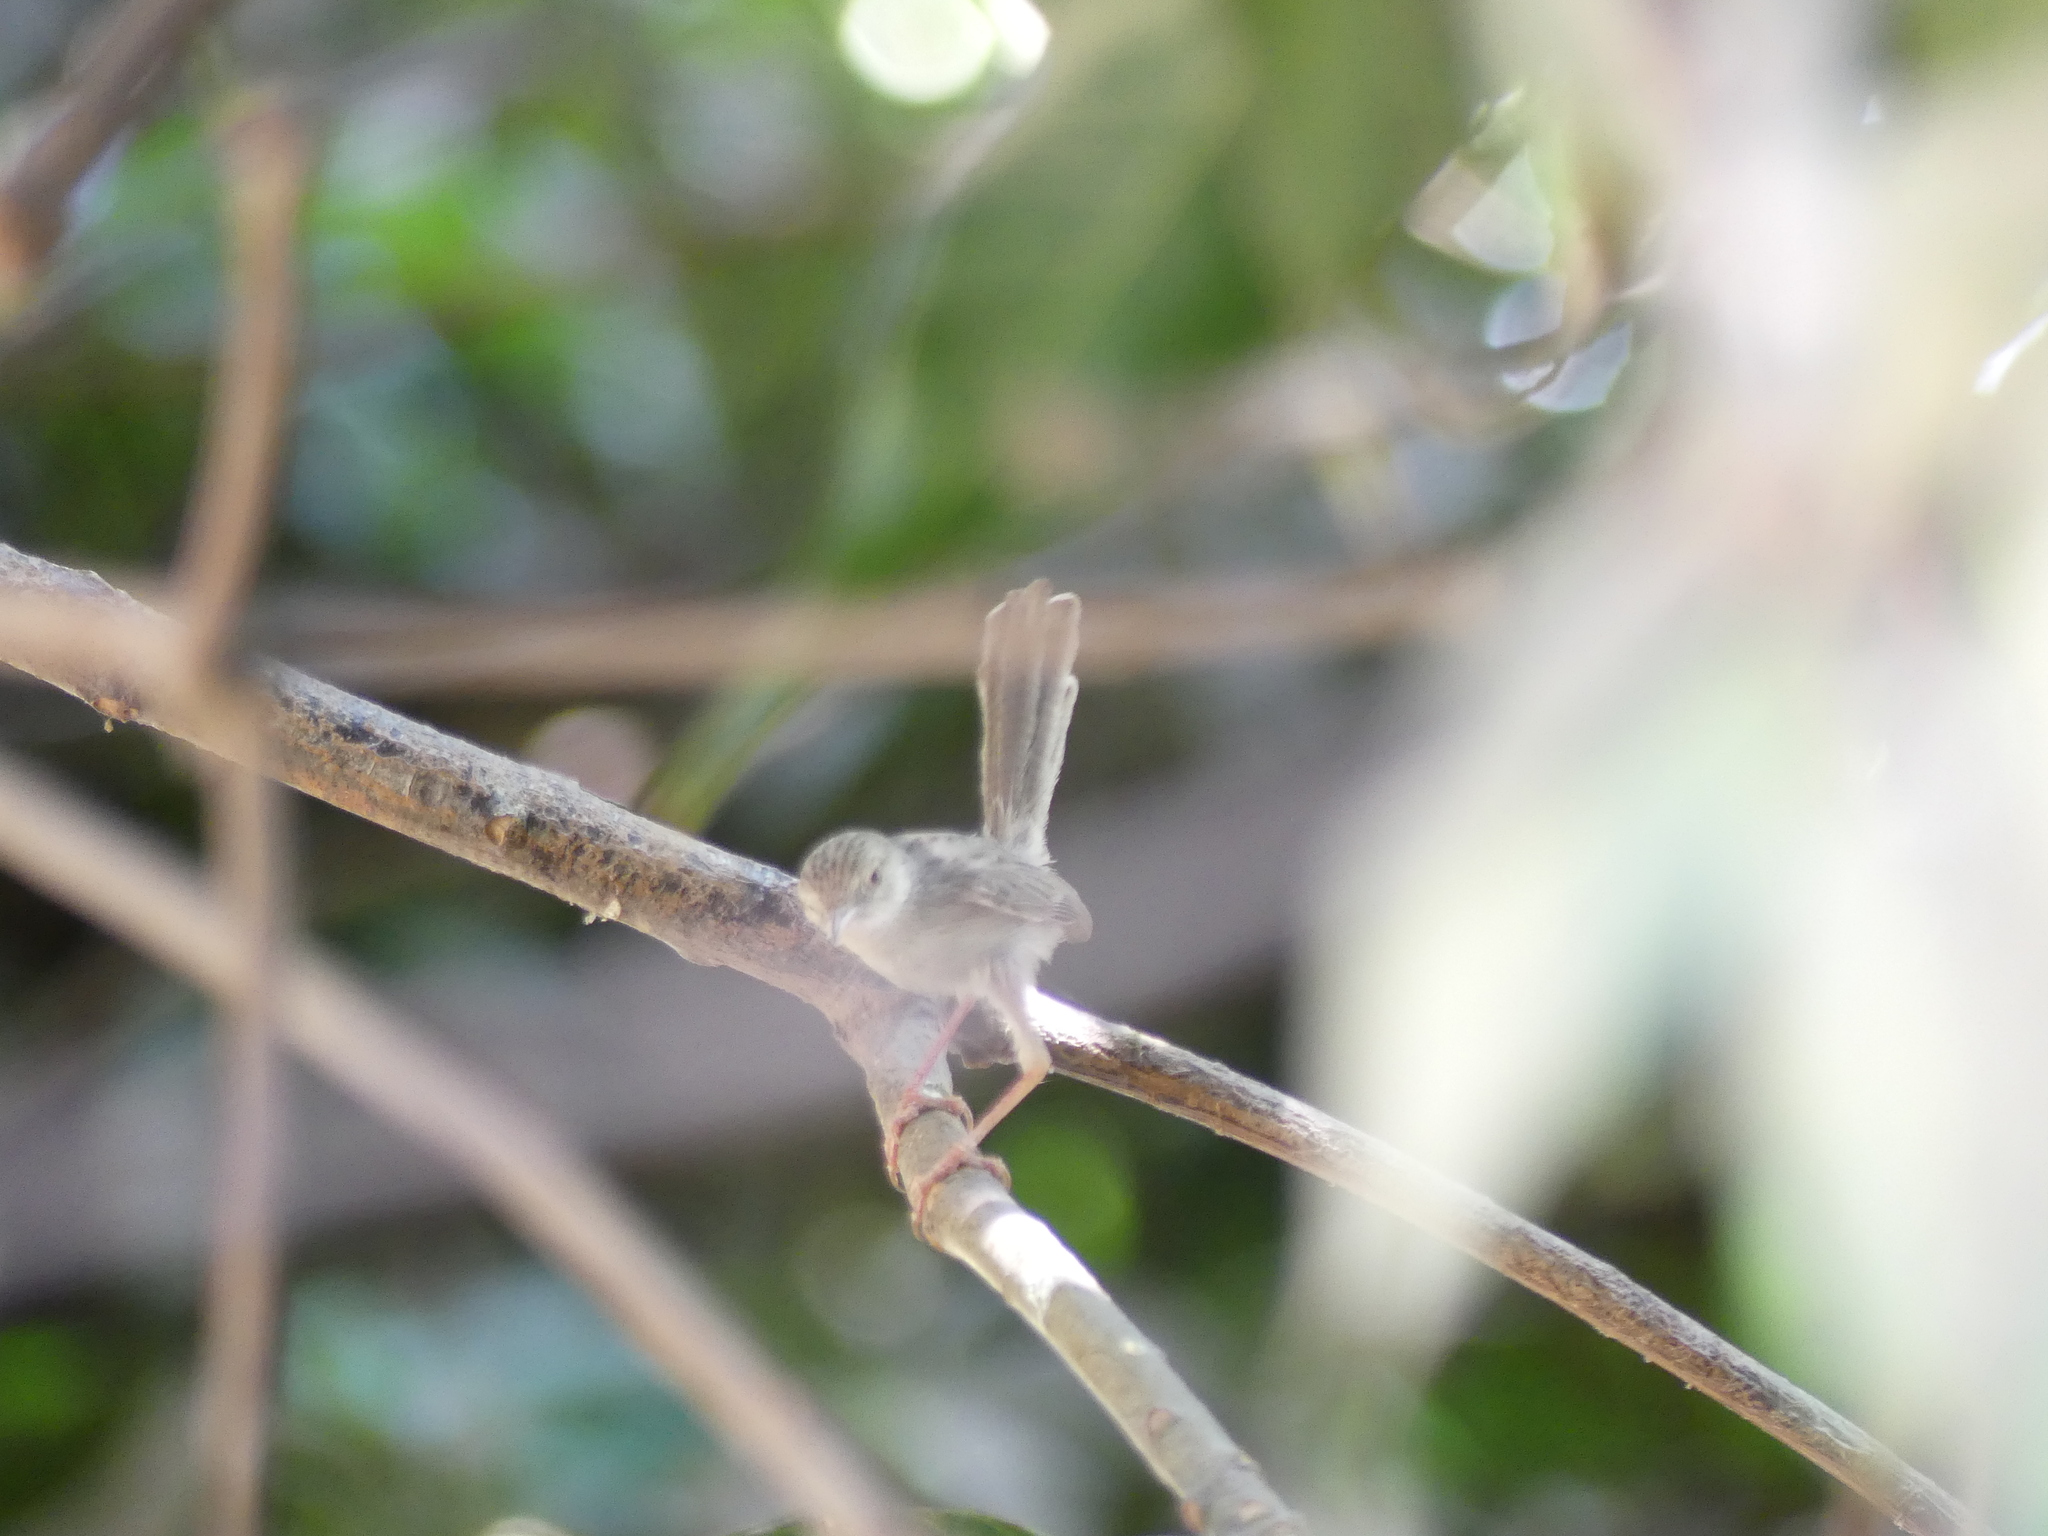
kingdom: Animalia
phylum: Chordata
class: Aves
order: Passeriformes
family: Cisticolidae
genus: Prinia
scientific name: Prinia gracilis
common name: Graceful prinia
